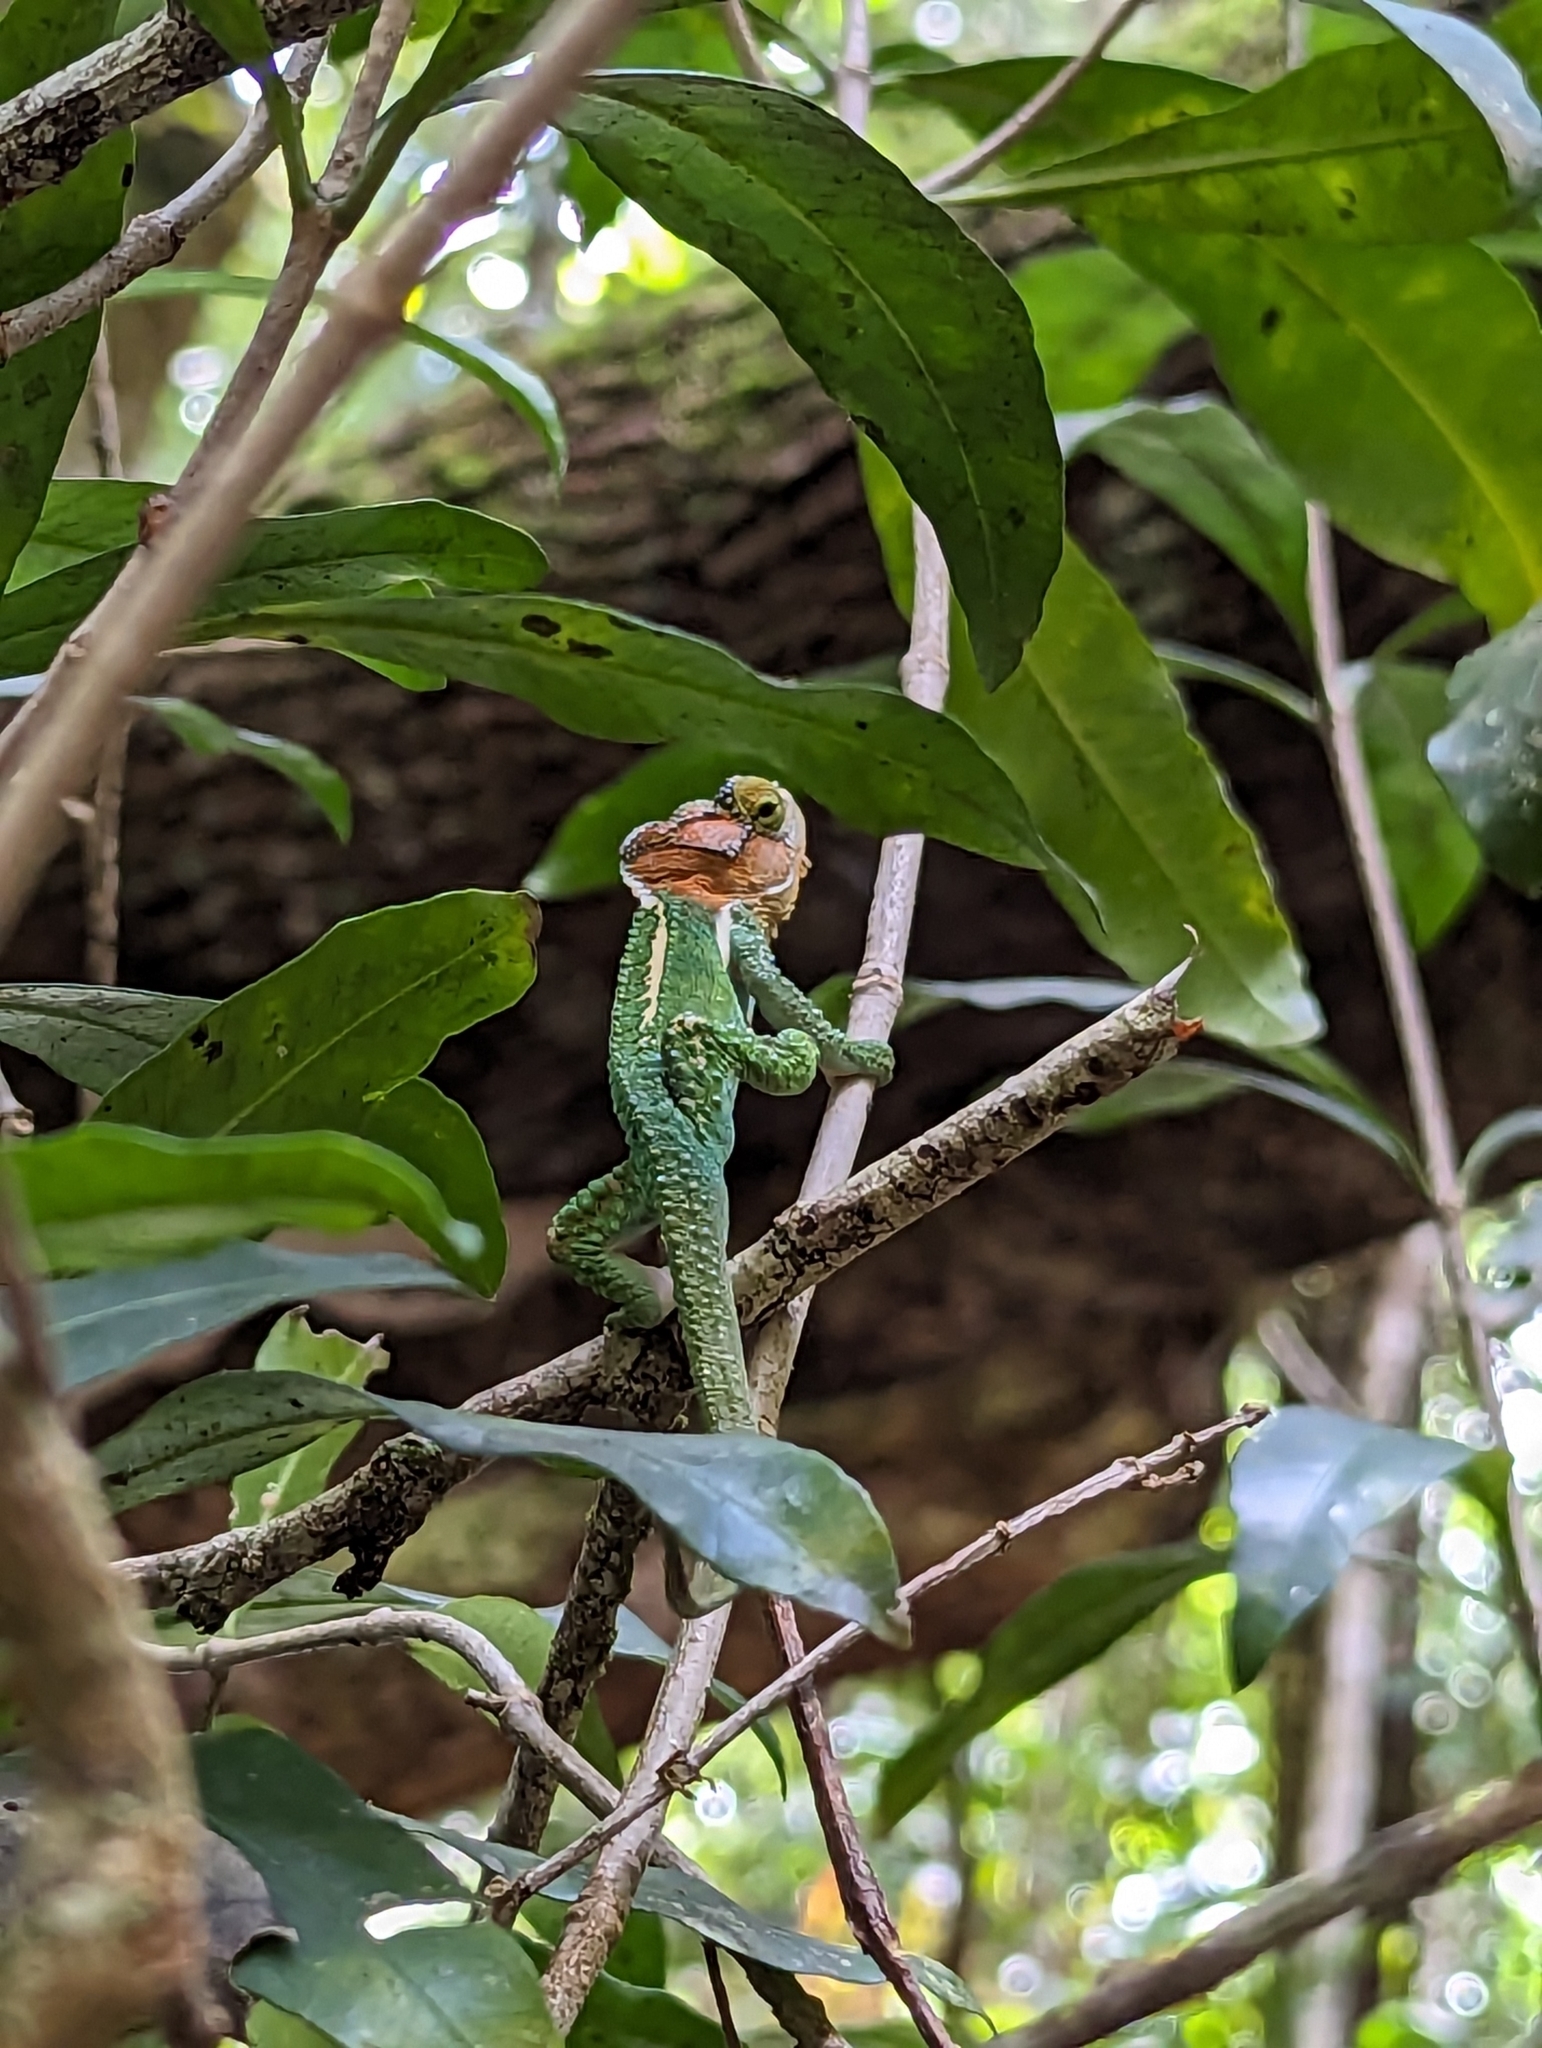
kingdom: Animalia
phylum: Chordata
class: Squamata
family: Chamaeleonidae
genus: Bradypodion
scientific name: Bradypodion damaranum
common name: Knysna dwarf chameleon
